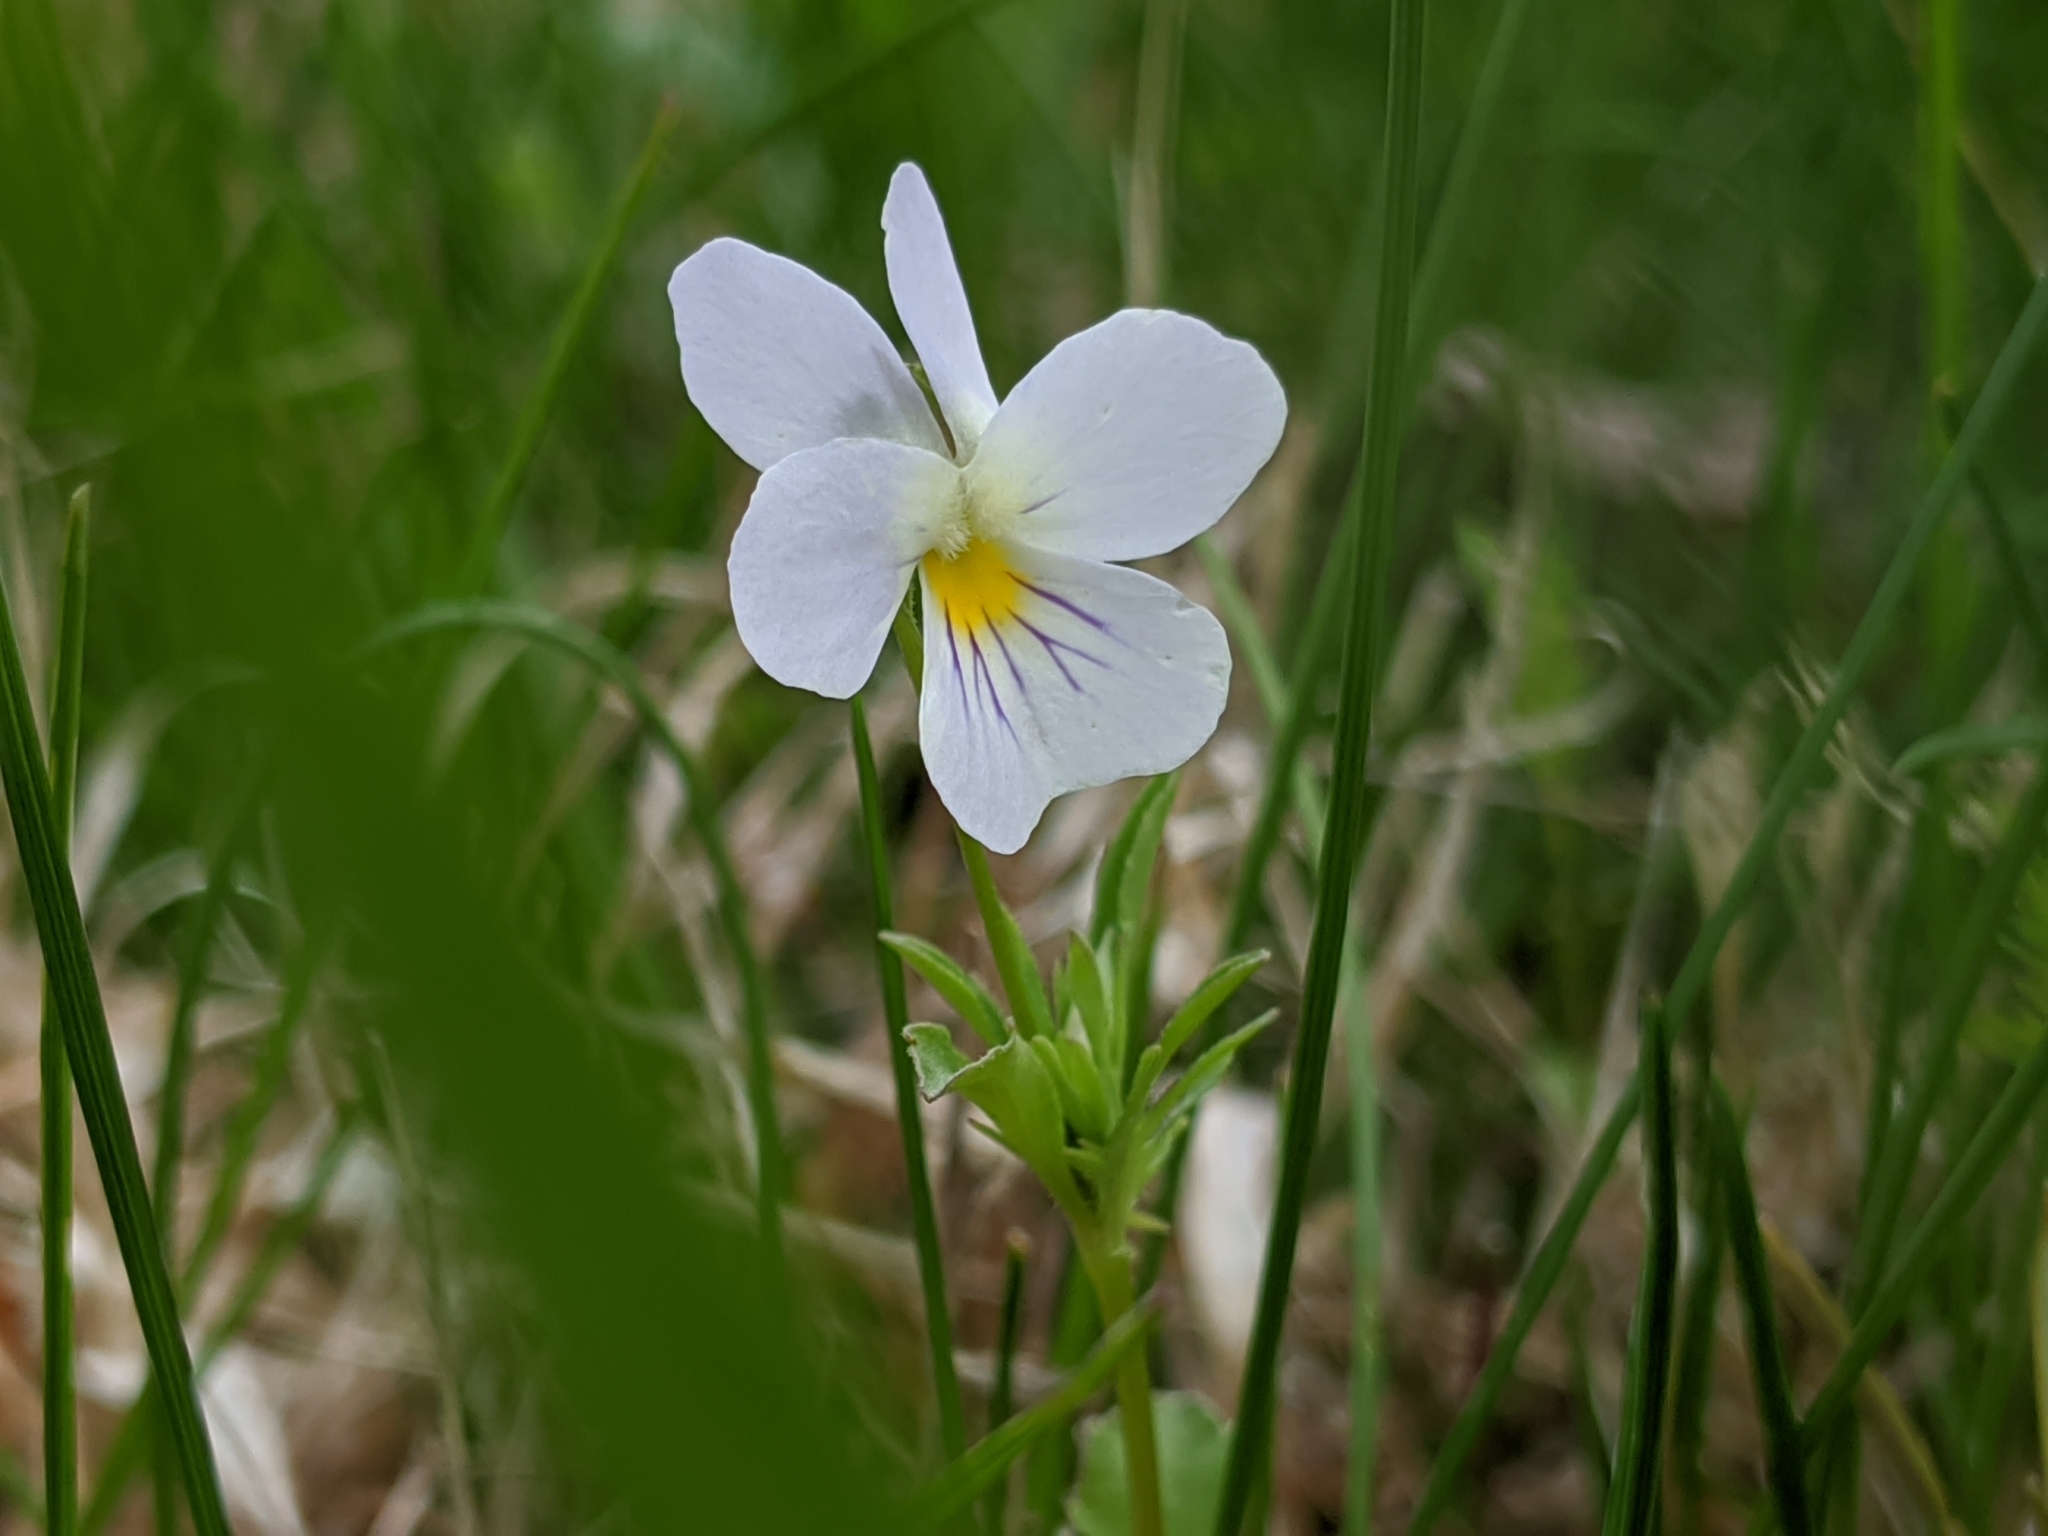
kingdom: Plantae
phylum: Tracheophyta
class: Magnoliopsida
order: Malpighiales
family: Violaceae
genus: Viola
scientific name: Viola rafinesquei
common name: American field pansy
